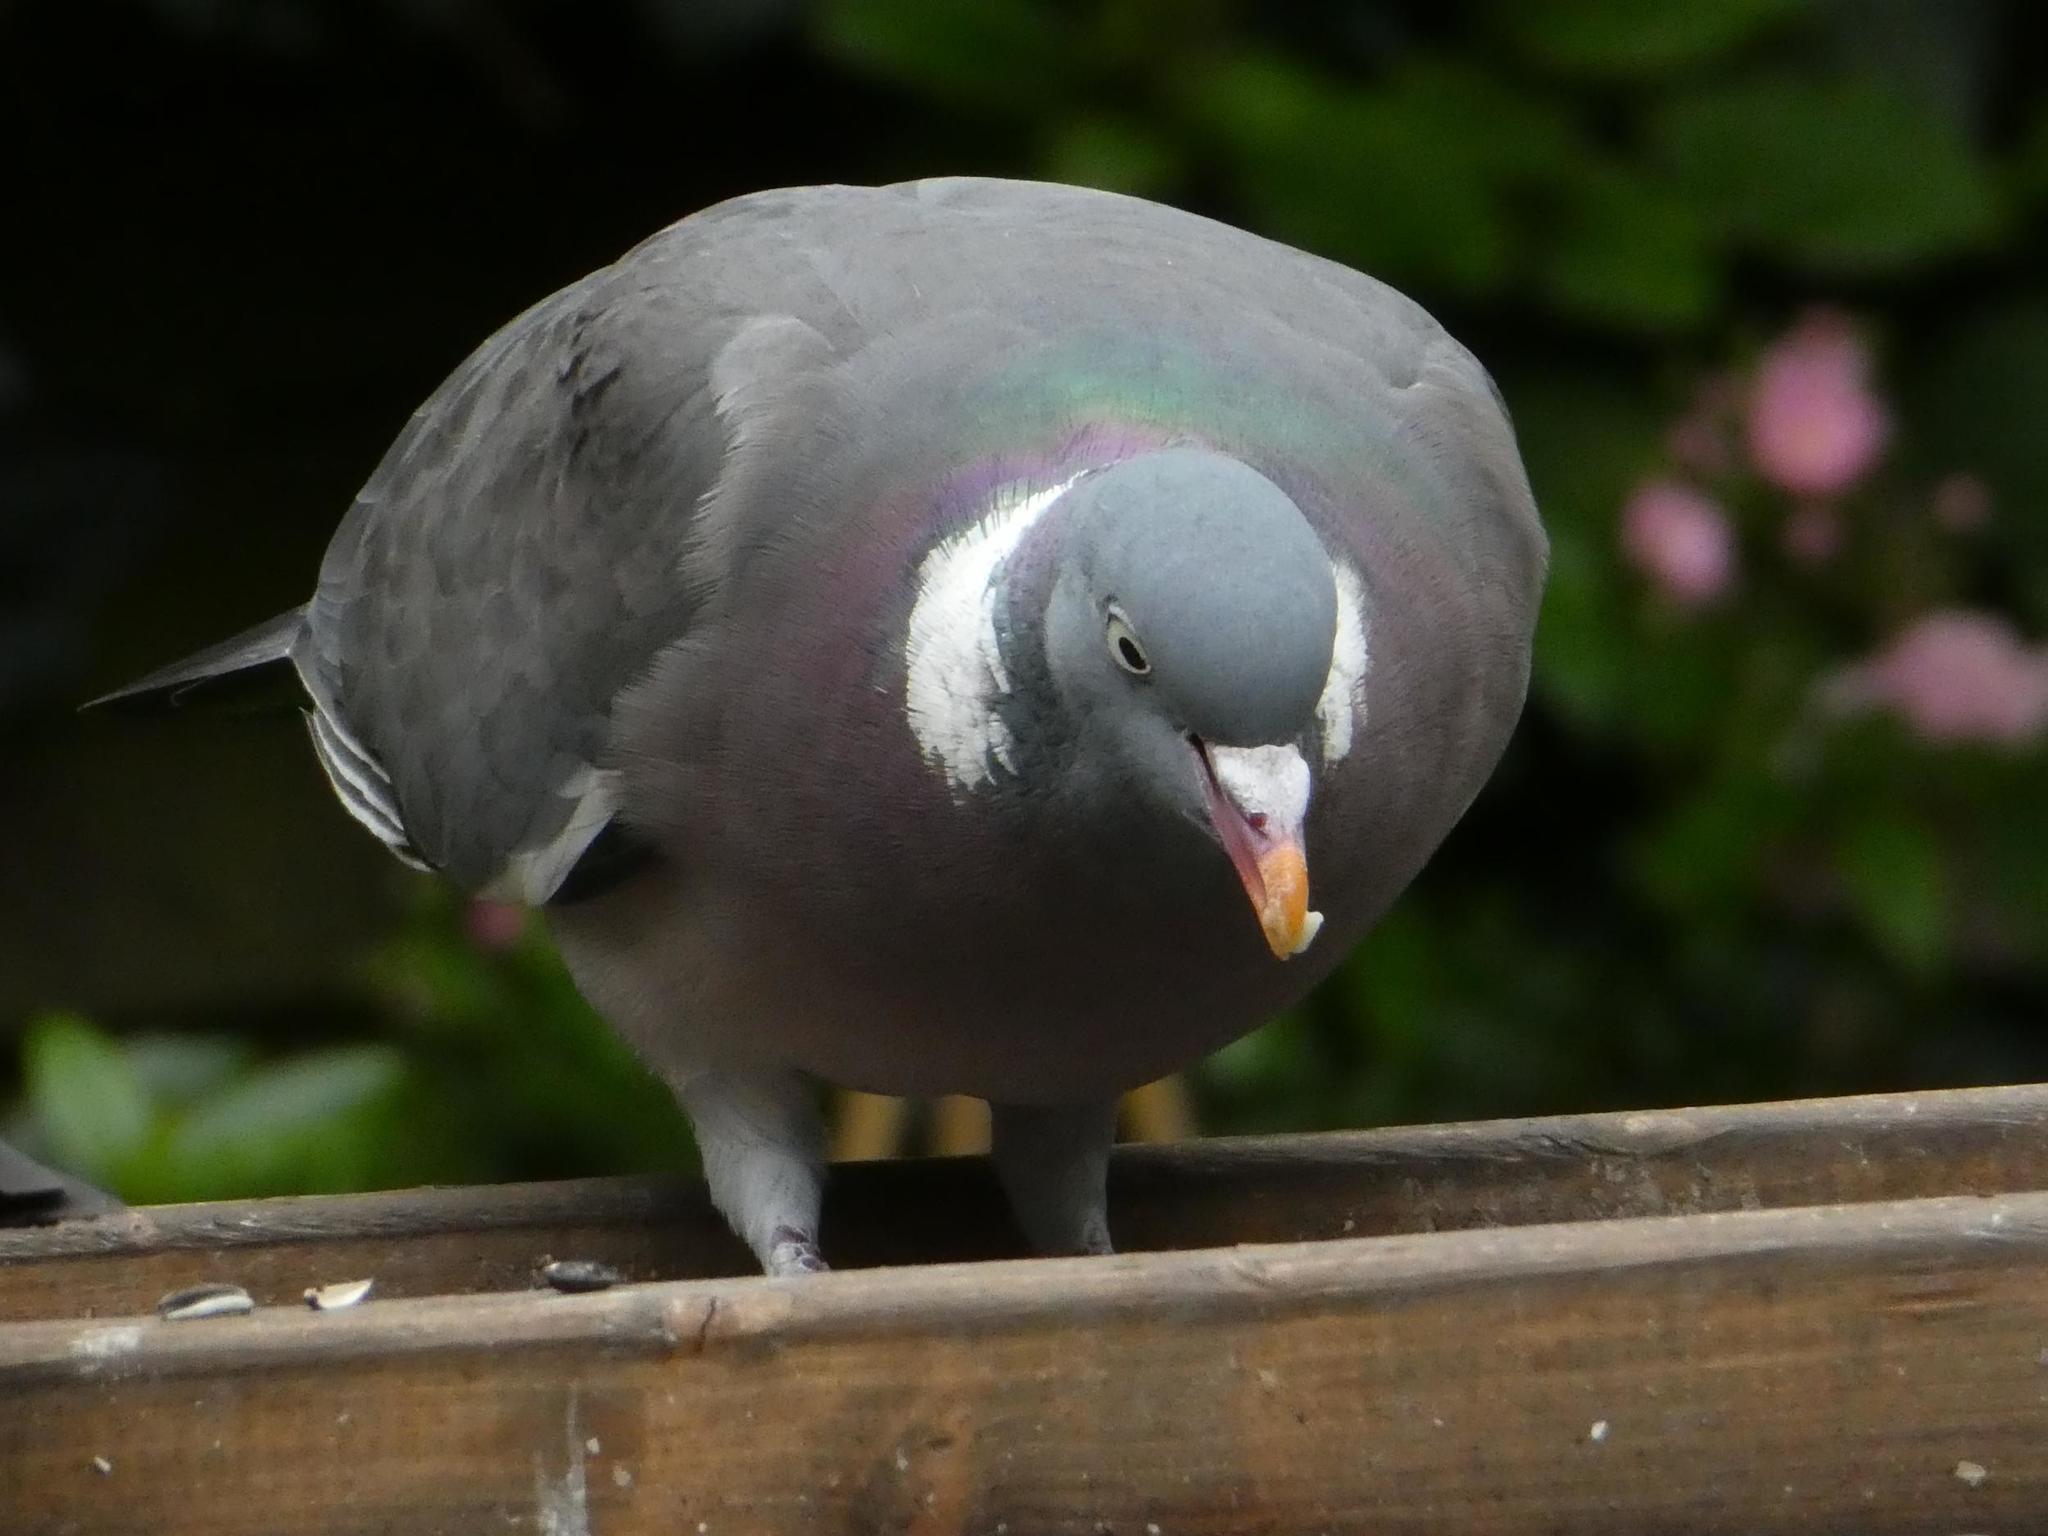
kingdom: Animalia
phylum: Chordata
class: Aves
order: Columbiformes
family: Columbidae
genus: Columba
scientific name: Columba palumbus
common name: Common wood pigeon
